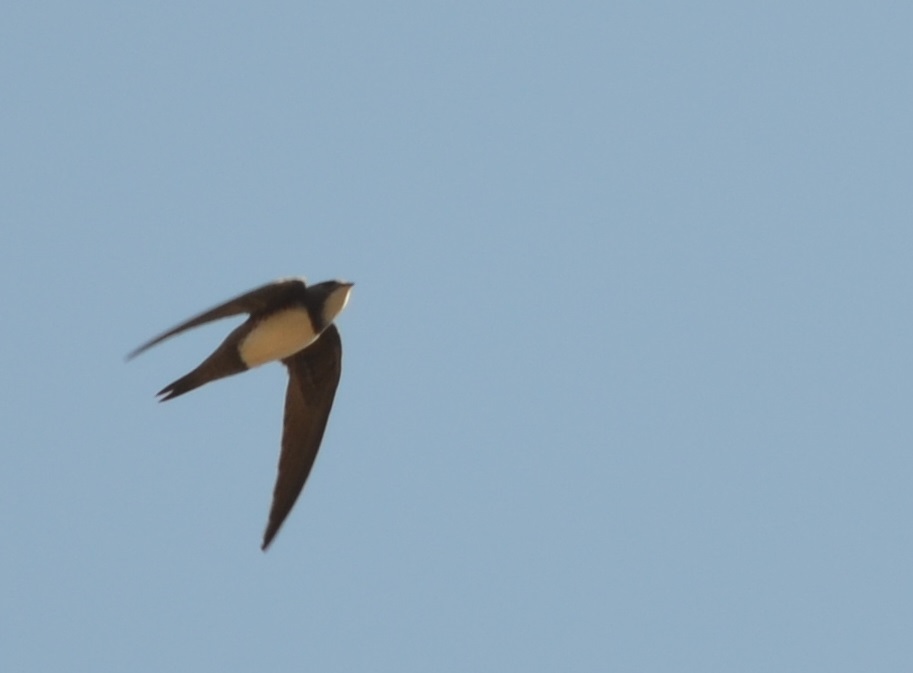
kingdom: Animalia
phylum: Chordata
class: Aves
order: Apodiformes
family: Apodidae
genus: Tachymarptis
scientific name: Tachymarptis melba
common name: Alpine swift
